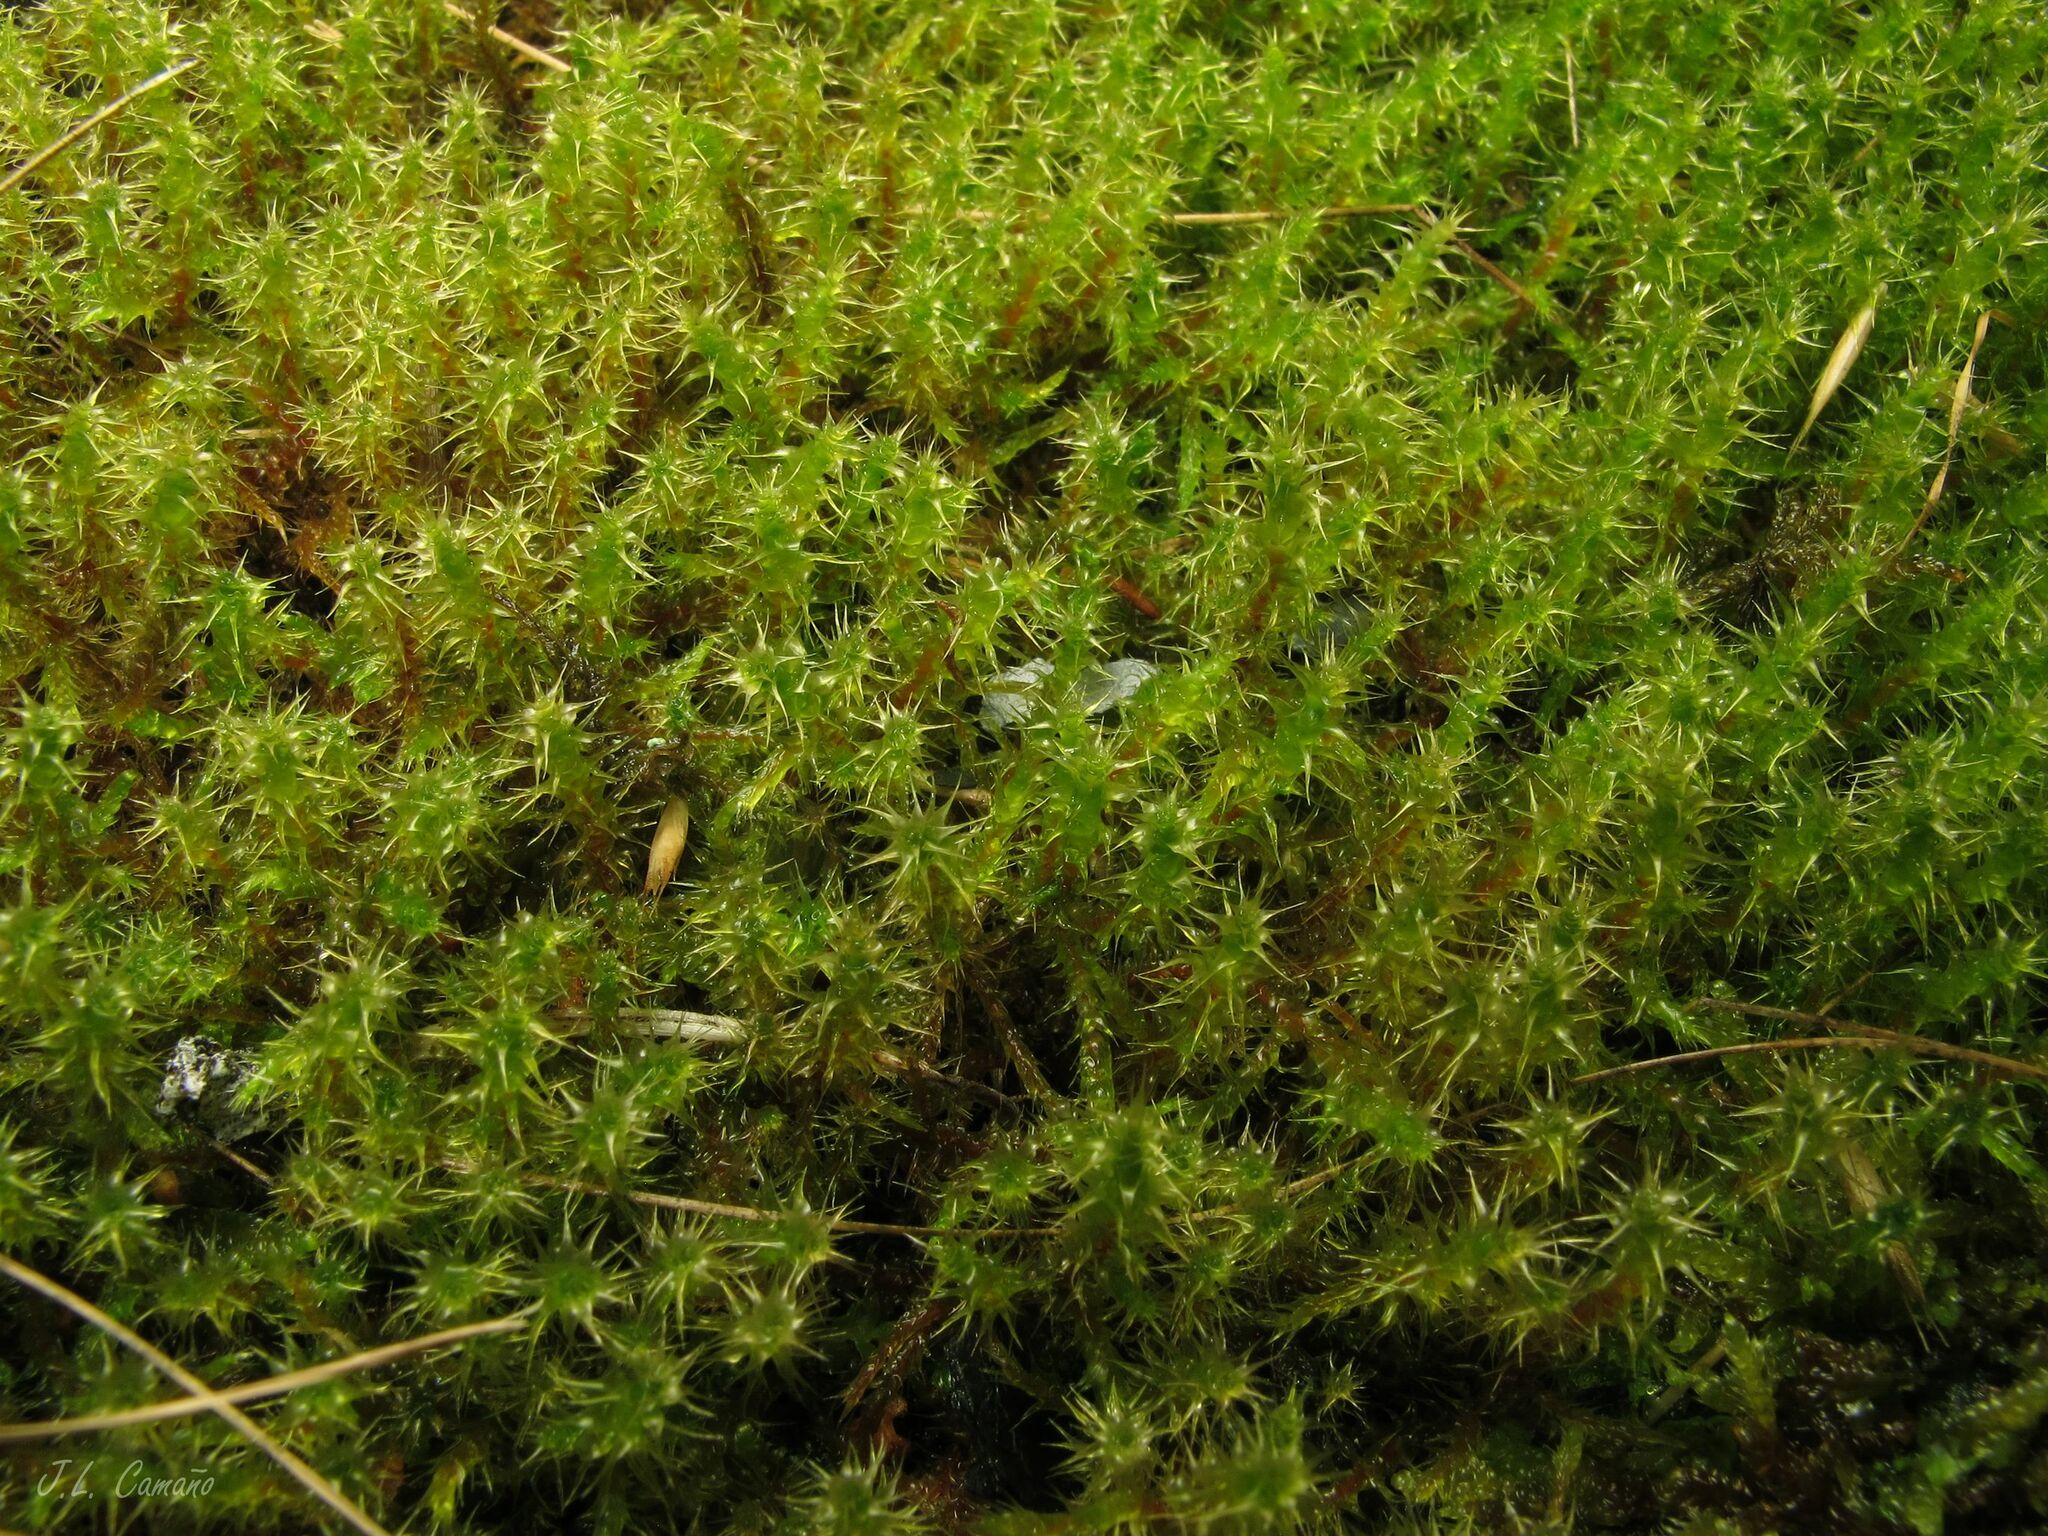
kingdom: Plantae
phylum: Bryophyta
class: Bryopsida
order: Hypnales
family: Hylocomiaceae
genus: Rhytidiadelphus
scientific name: Rhytidiadelphus squarrosus
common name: Springy turf-moss
